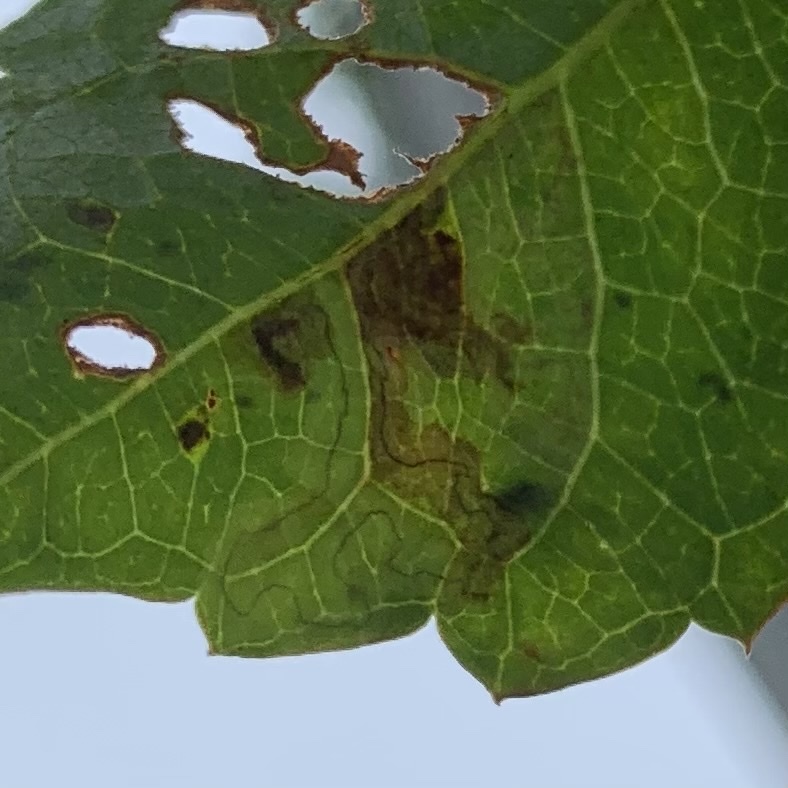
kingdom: Animalia
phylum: Arthropoda
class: Insecta
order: Lepidoptera
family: Gracillariidae
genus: Phyllocnistis
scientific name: Phyllocnistis ampelopsiella
